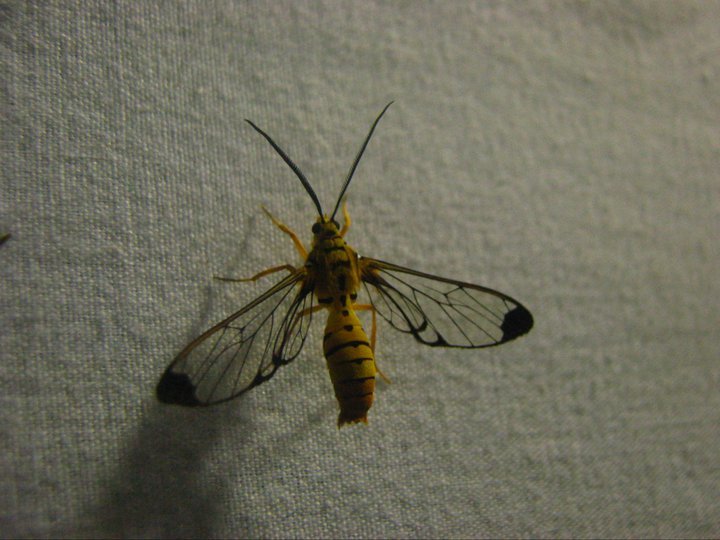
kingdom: Animalia
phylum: Arthropoda
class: Insecta
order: Lepidoptera
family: Erebidae
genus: Isanthrene
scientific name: Isanthrene felderi
